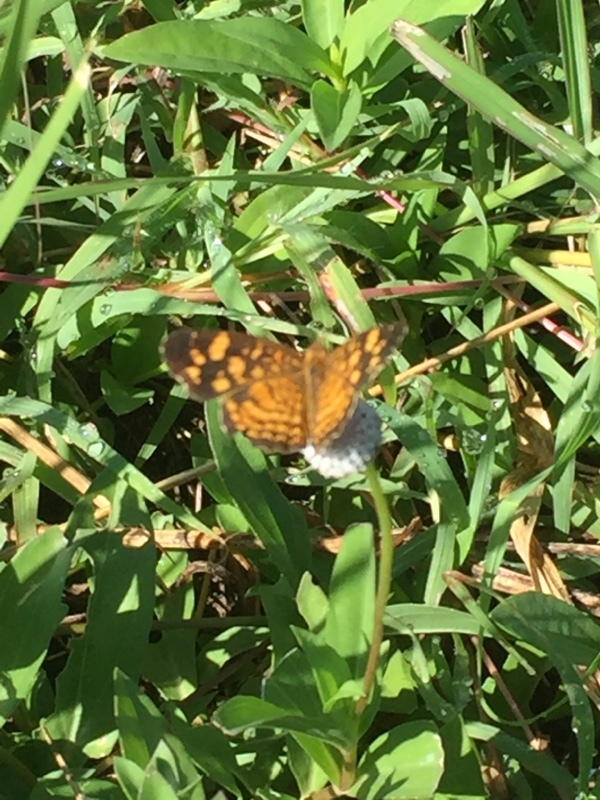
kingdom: Animalia
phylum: Arthropoda
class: Insecta
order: Lepidoptera
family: Nymphalidae
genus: Anthanassa
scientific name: Anthanassa frisia
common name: Cuban crescent
